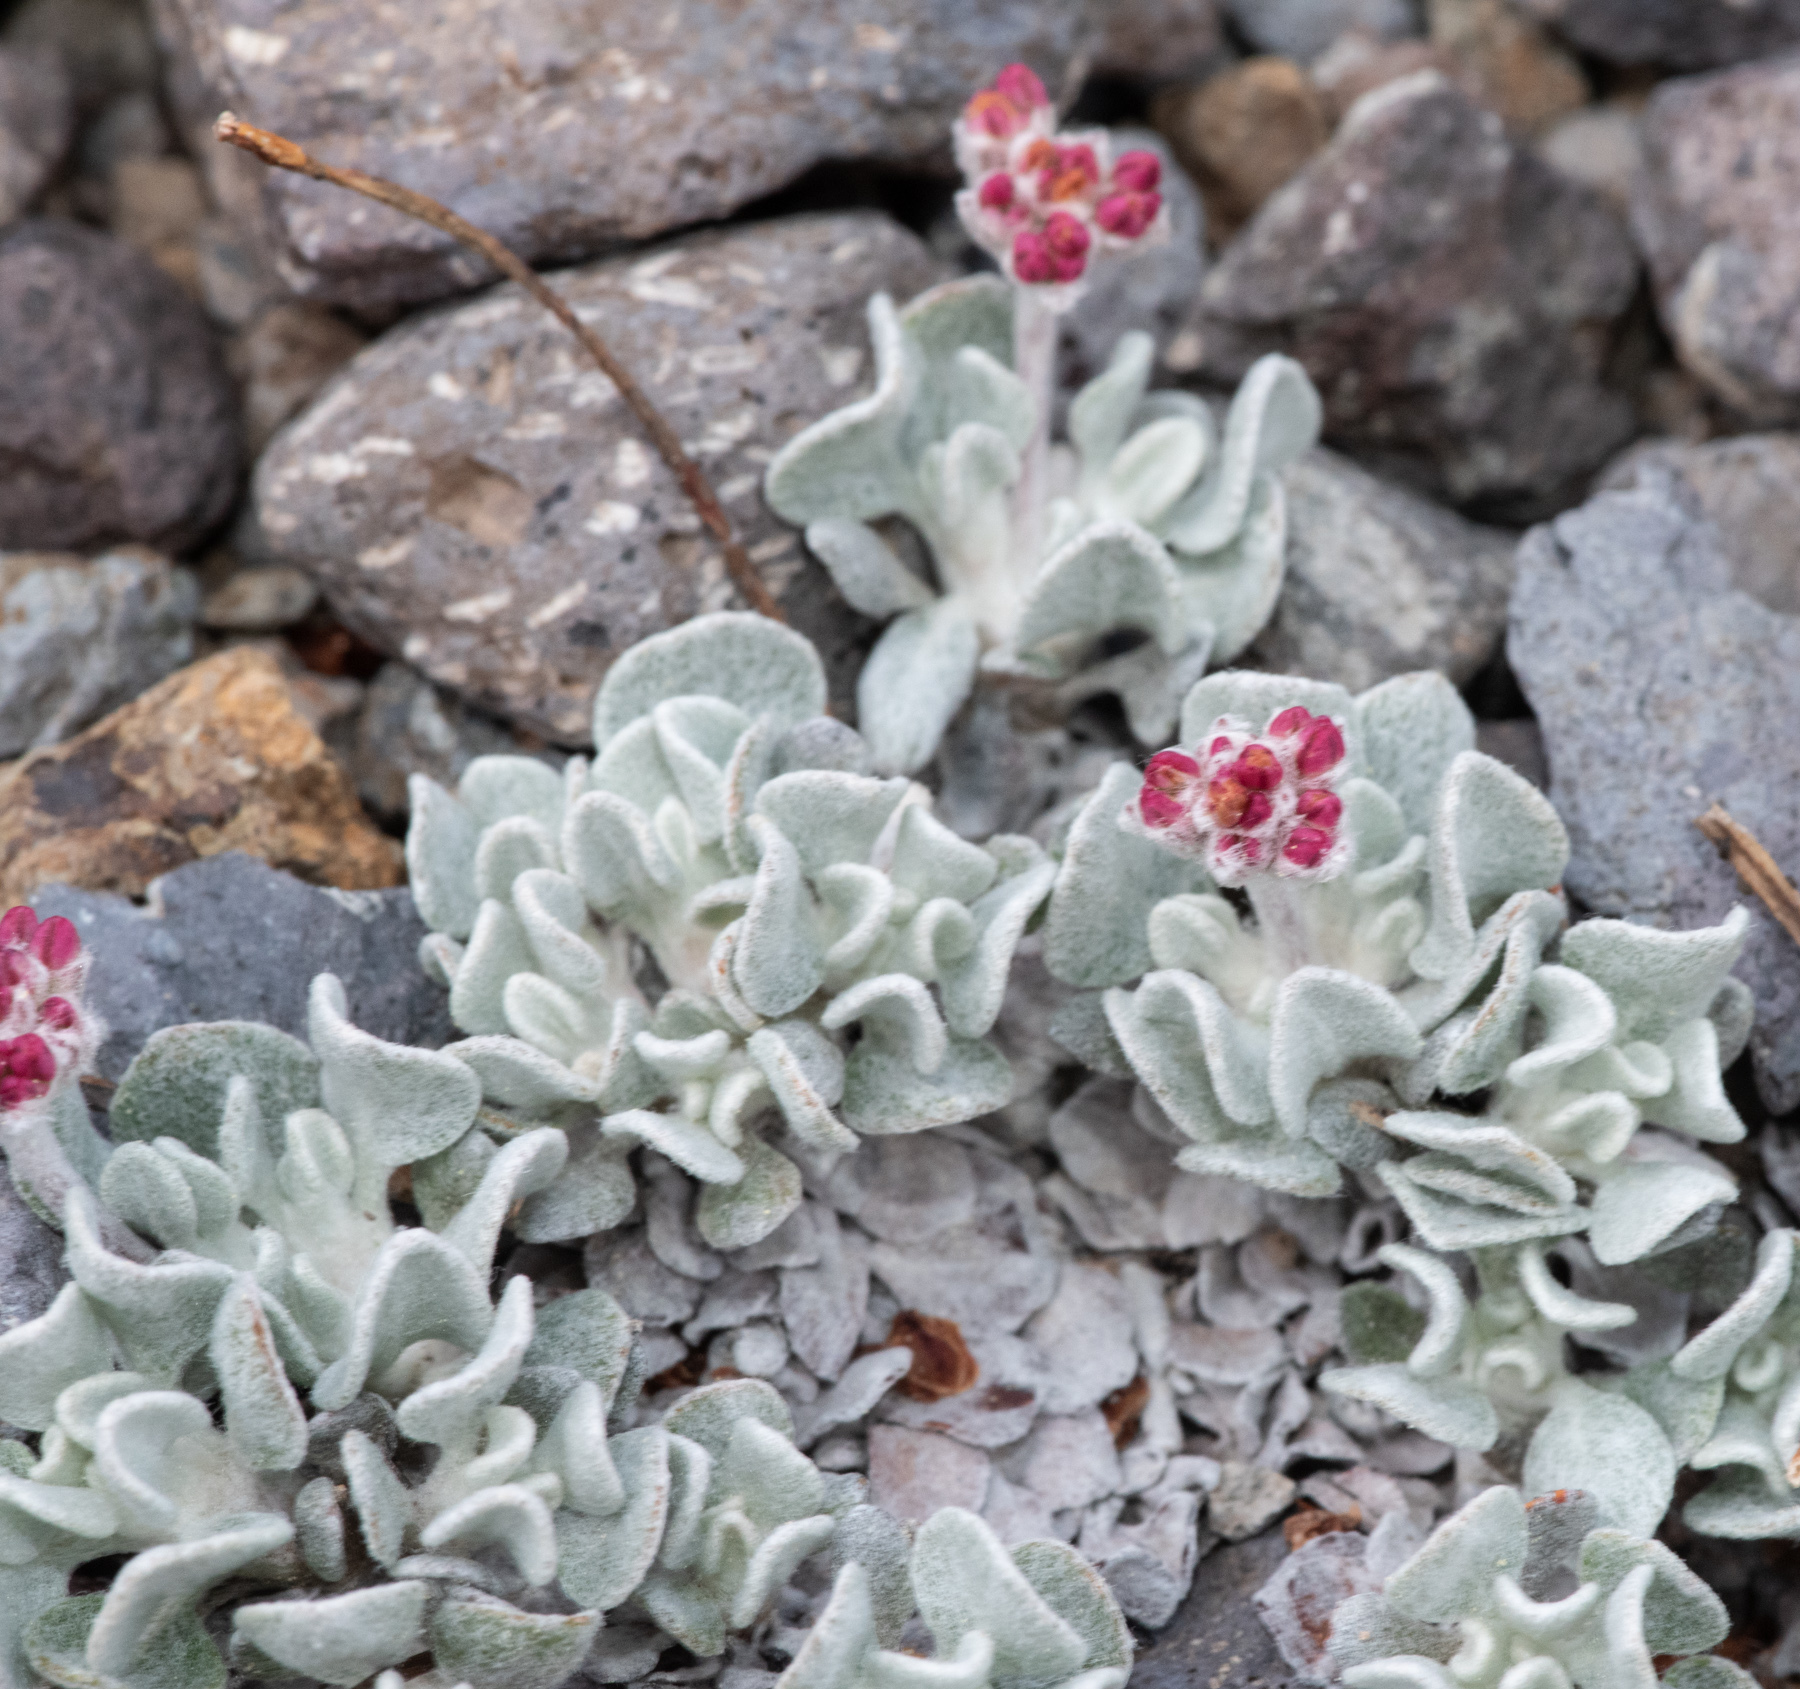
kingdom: Plantae
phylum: Tracheophyta
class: Magnoliopsida
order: Caryophyllales
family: Polygonaceae
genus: Eriogonum
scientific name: Eriogonum ovalifolium
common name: Cushion buckwheat
